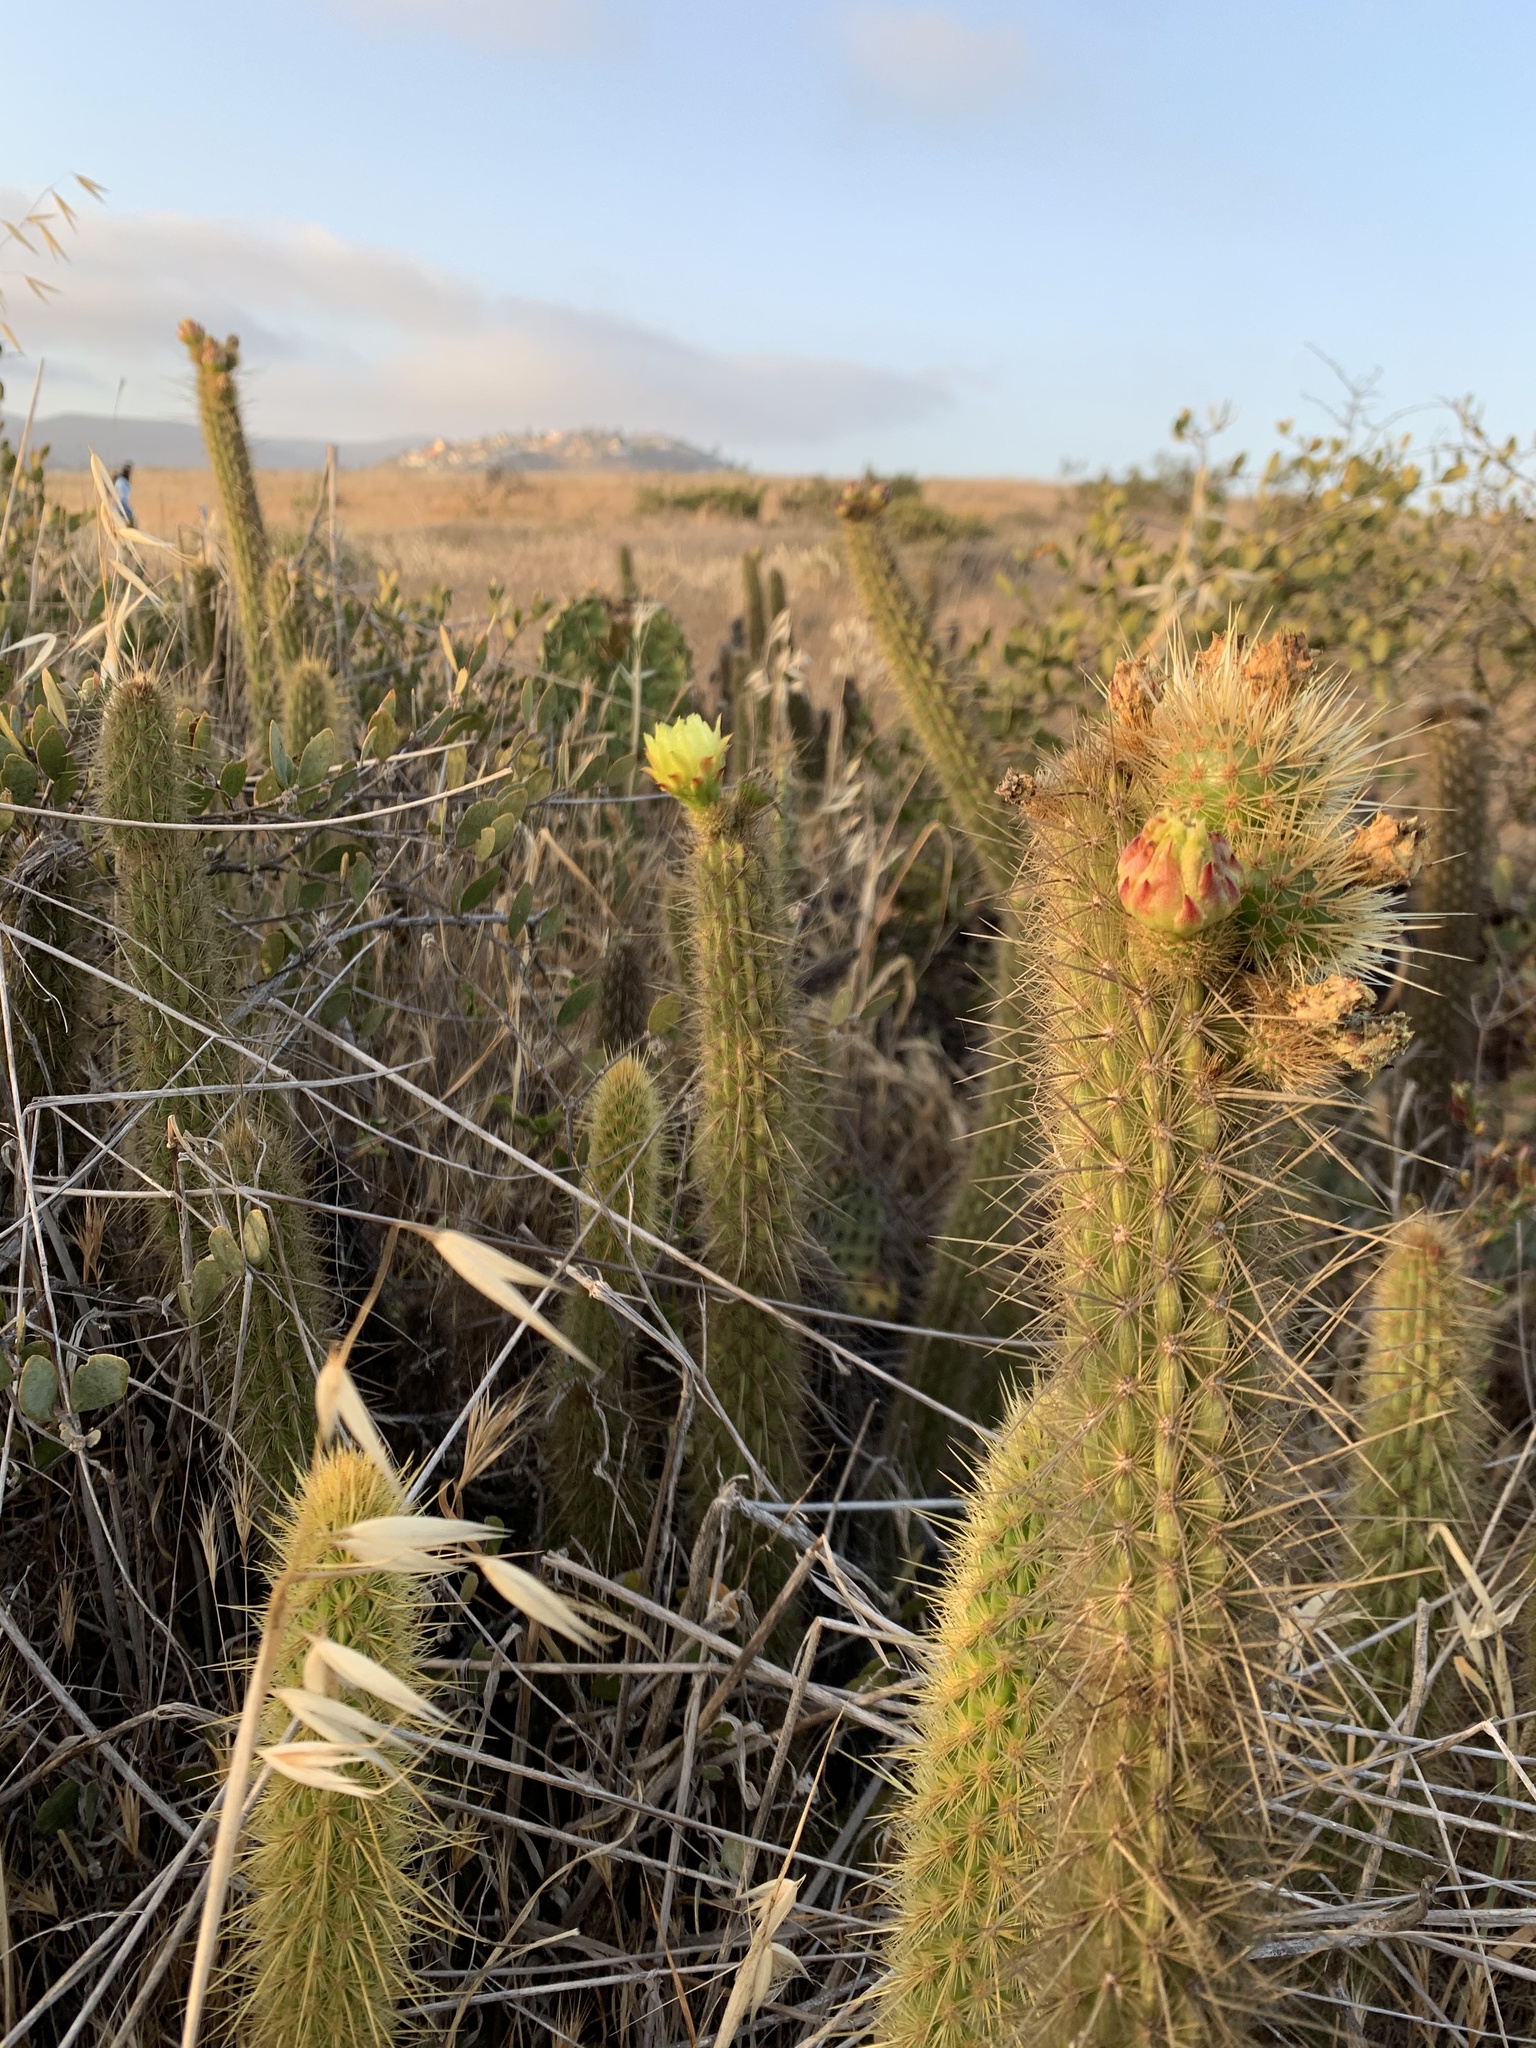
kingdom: Plantae
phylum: Tracheophyta
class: Magnoliopsida
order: Caryophyllales
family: Cactaceae
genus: Bergerocactus
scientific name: Bergerocactus emoryi
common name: Golden snakecactus
